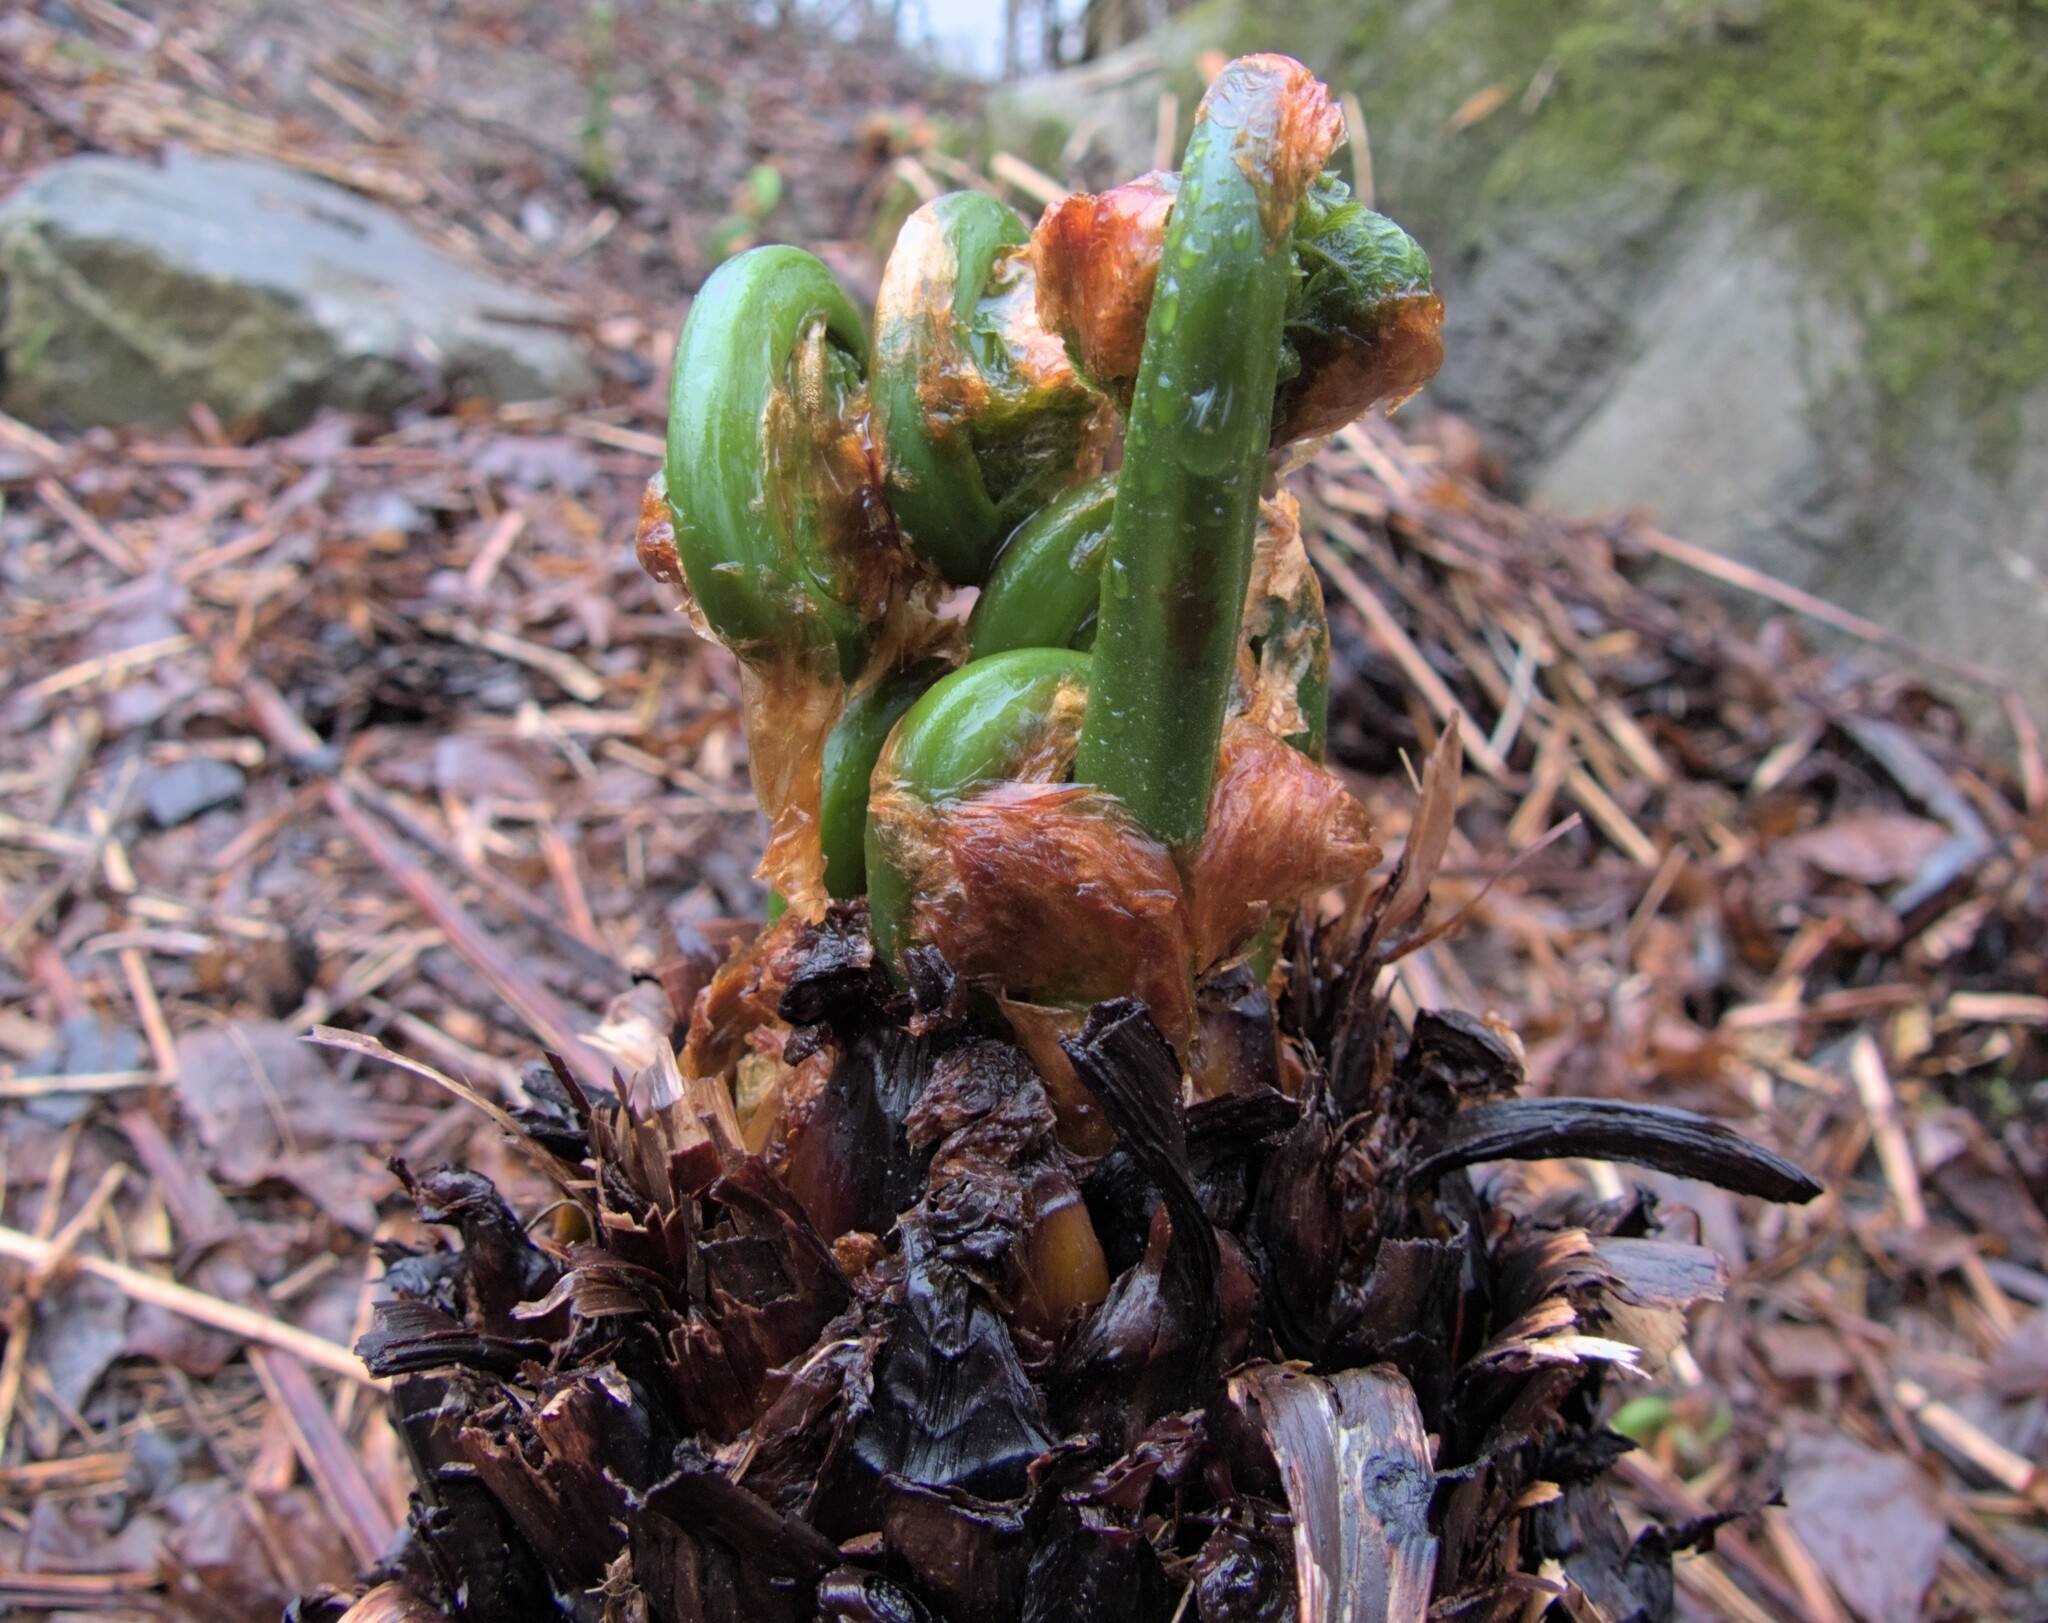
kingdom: Plantae
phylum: Tracheophyta
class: Polypodiopsida
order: Polypodiales
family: Onocleaceae
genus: Matteuccia
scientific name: Matteuccia struthiopteris
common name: Ostrich fern
